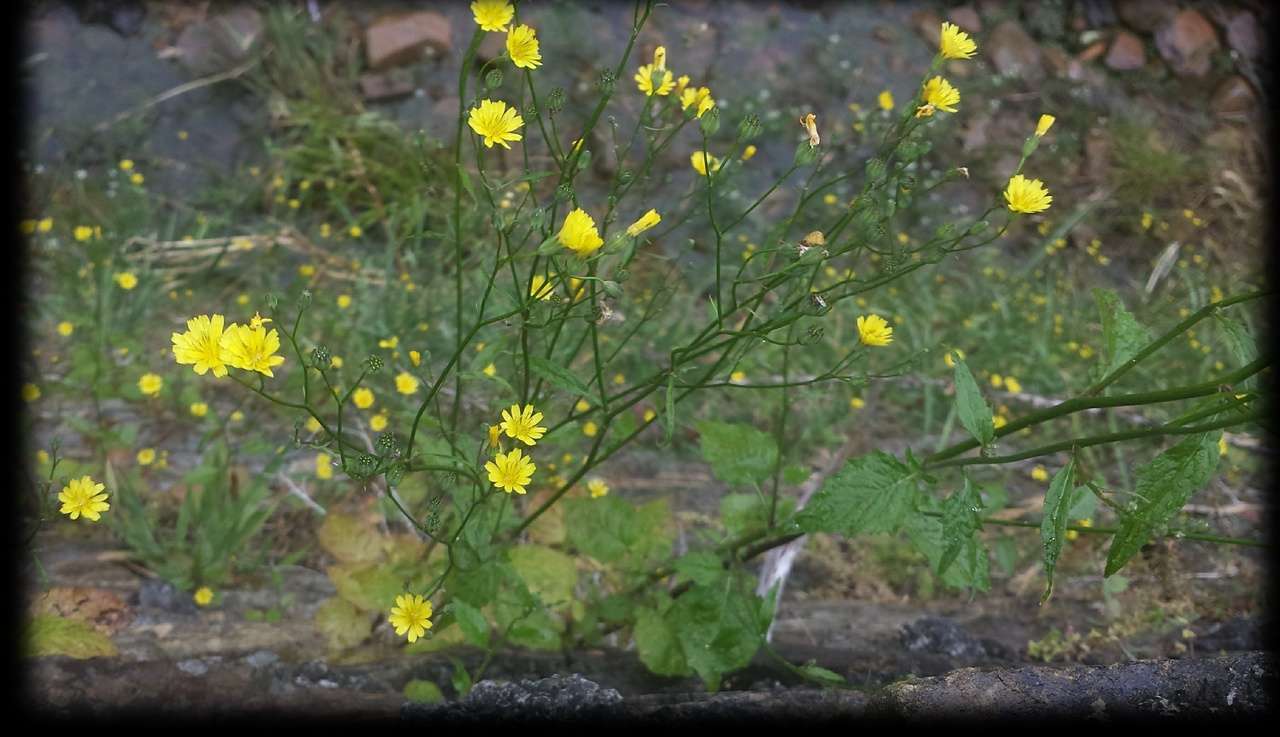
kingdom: Plantae
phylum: Tracheophyta
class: Magnoliopsida
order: Asterales
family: Asteraceae
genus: Lapsana
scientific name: Lapsana communis
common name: Nipplewort
